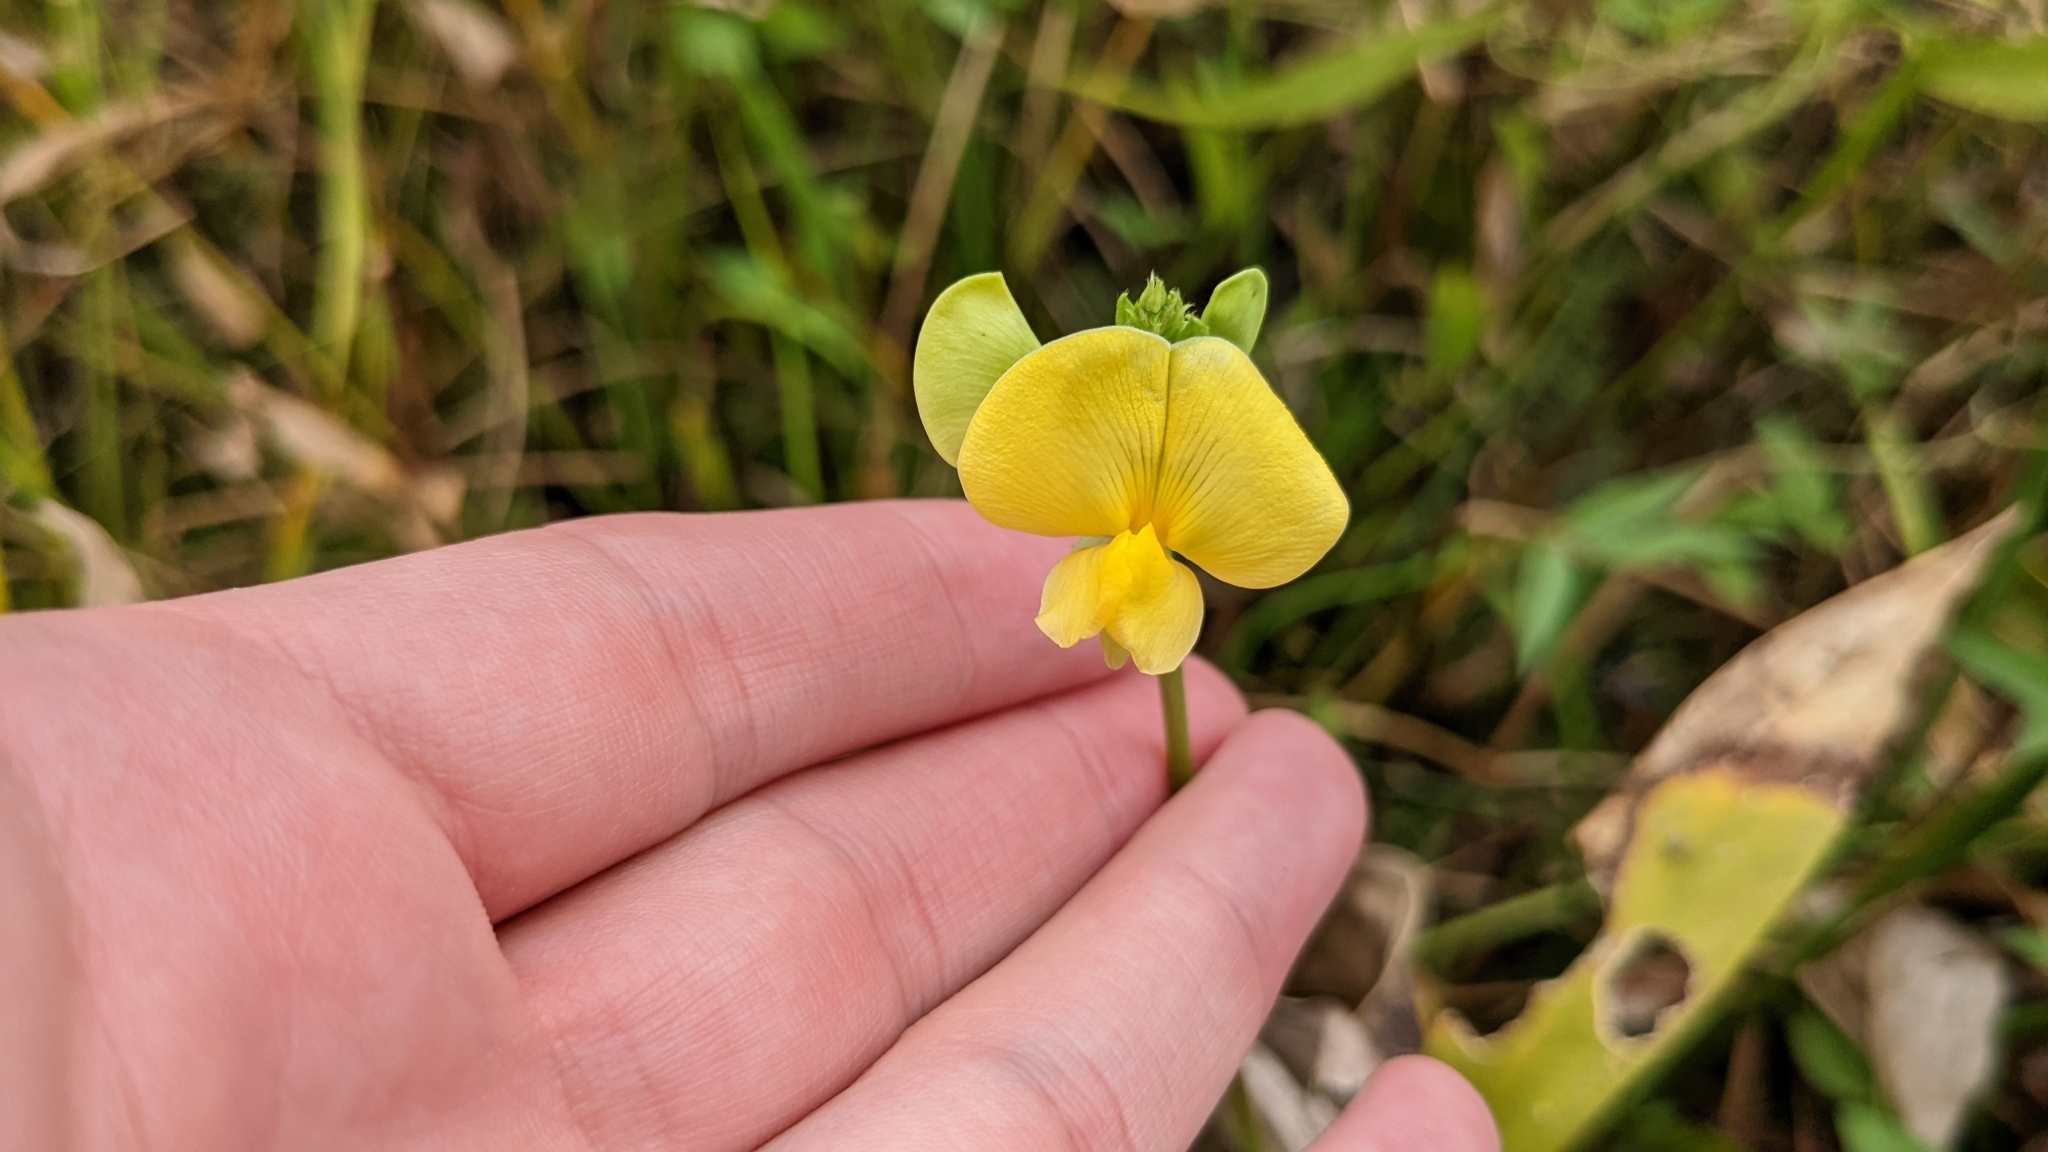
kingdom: Plantae
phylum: Tracheophyta
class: Magnoliopsida
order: Fabales
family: Fabaceae
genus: Vigna
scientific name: Vigna luteola
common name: Hairypod cowpea
